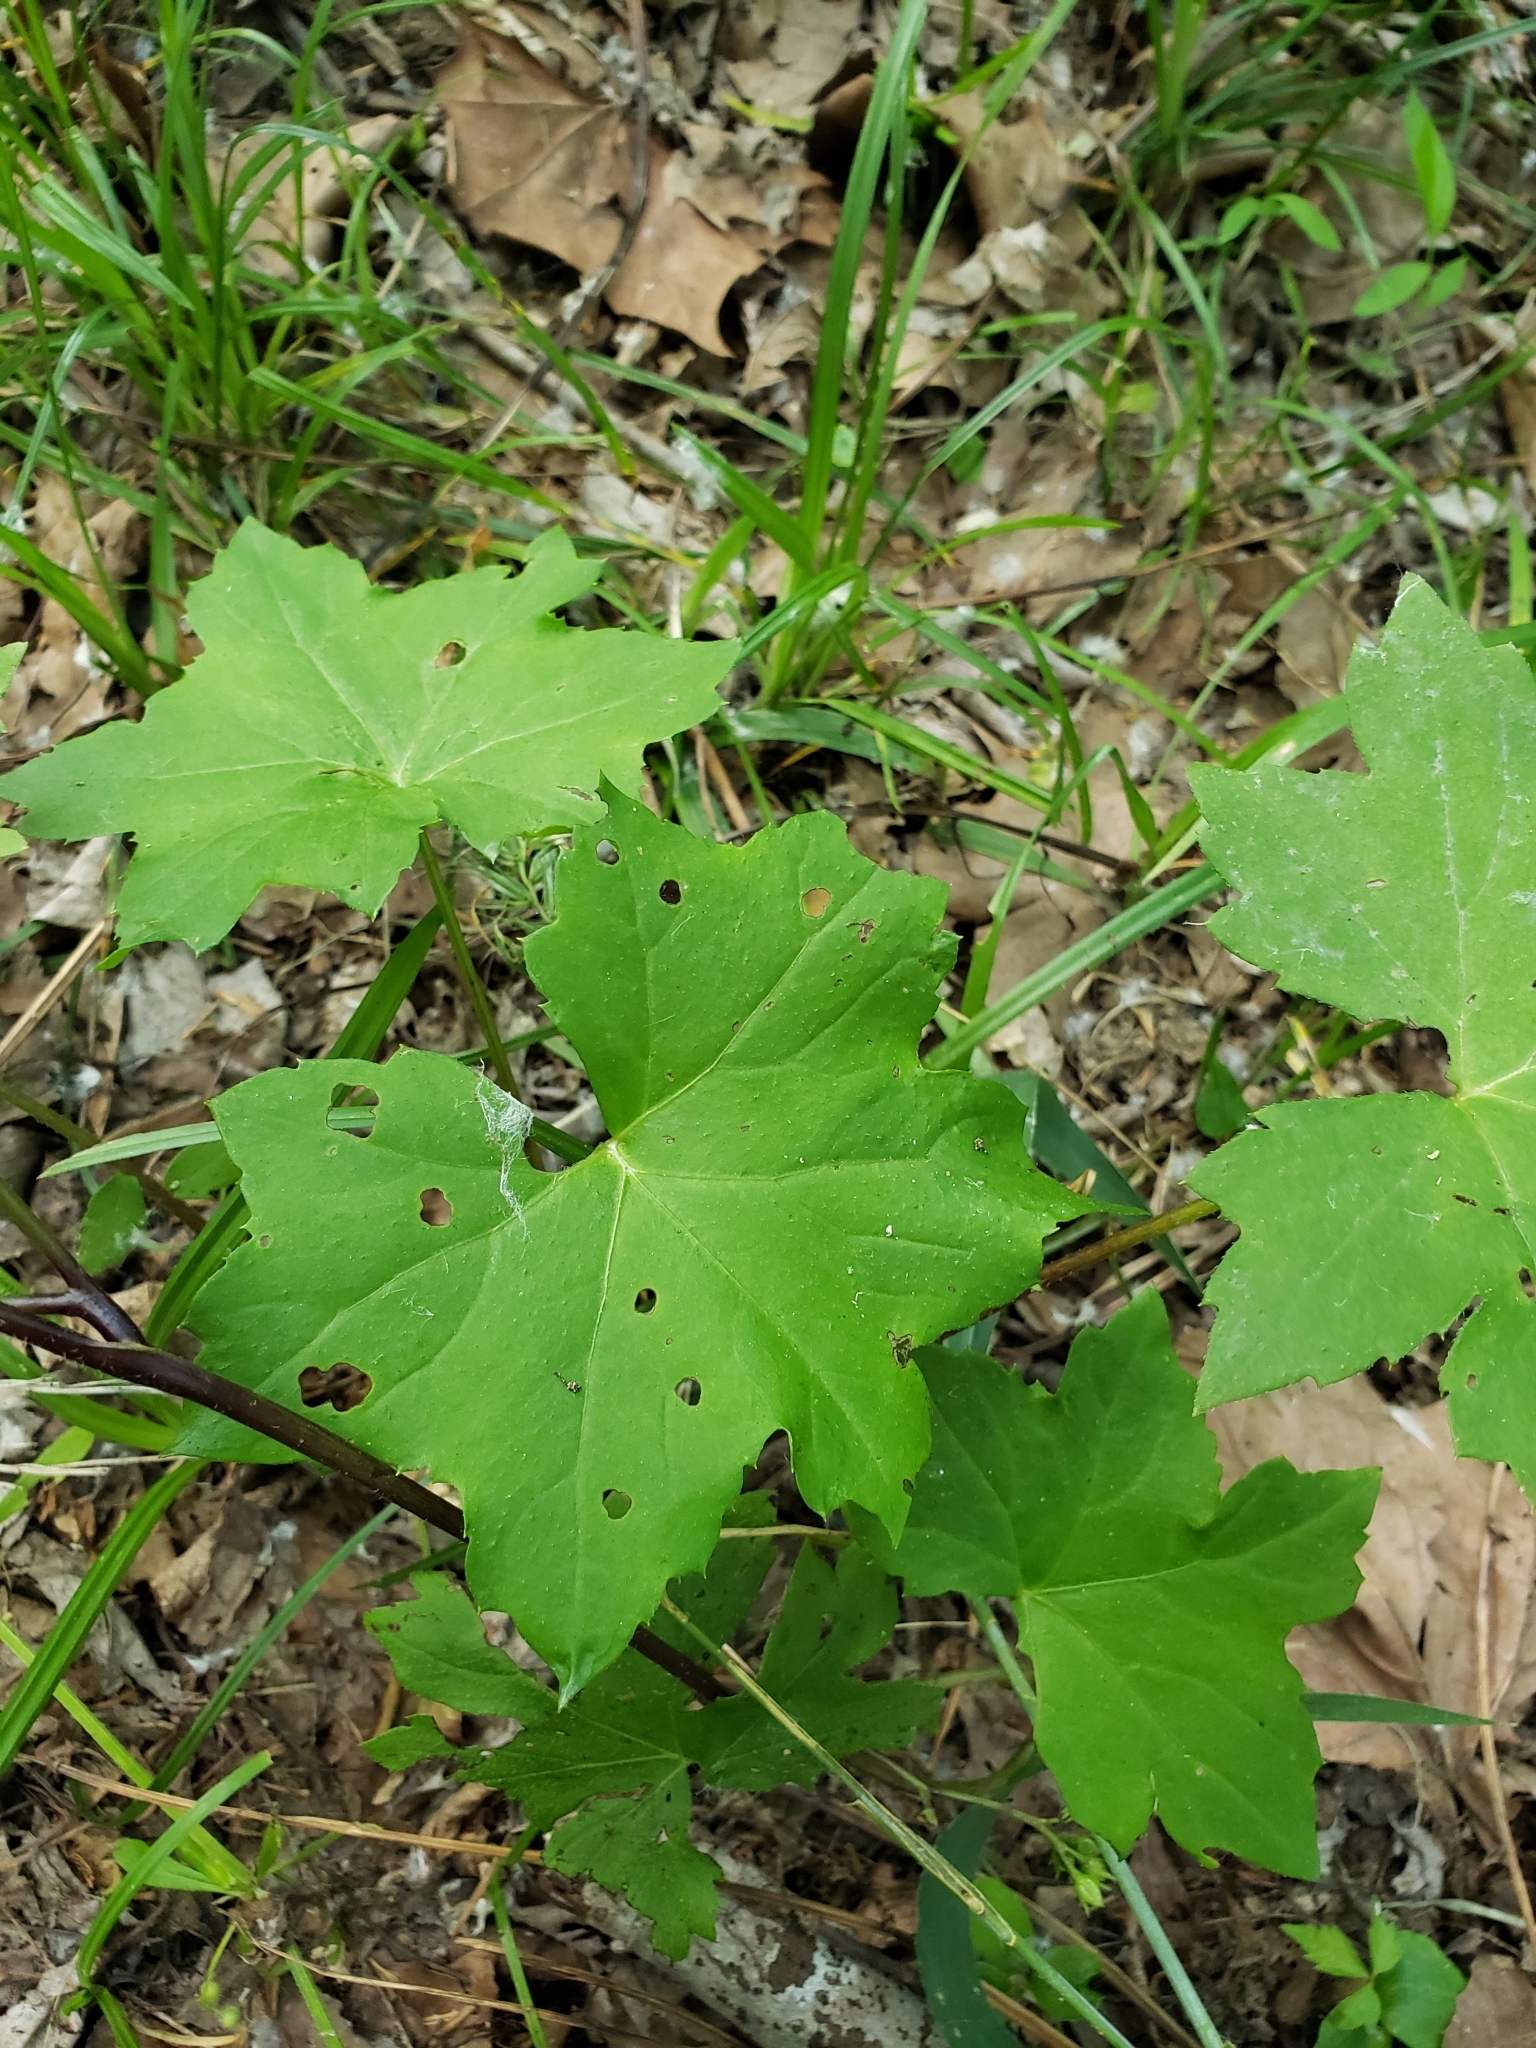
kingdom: Plantae
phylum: Tracheophyta
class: Magnoliopsida
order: Boraginales
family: Hydrophyllaceae
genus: Hydrophyllum
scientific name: Hydrophyllum canadense
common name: Canada waterleaf
